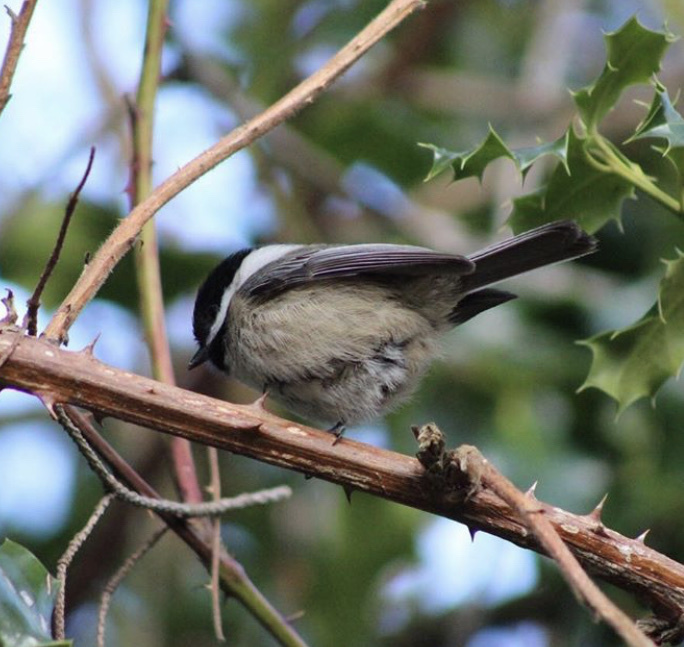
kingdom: Animalia
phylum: Chordata
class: Aves
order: Passeriformes
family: Paridae
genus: Poecile
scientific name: Poecile atricapillus
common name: Black-capped chickadee
